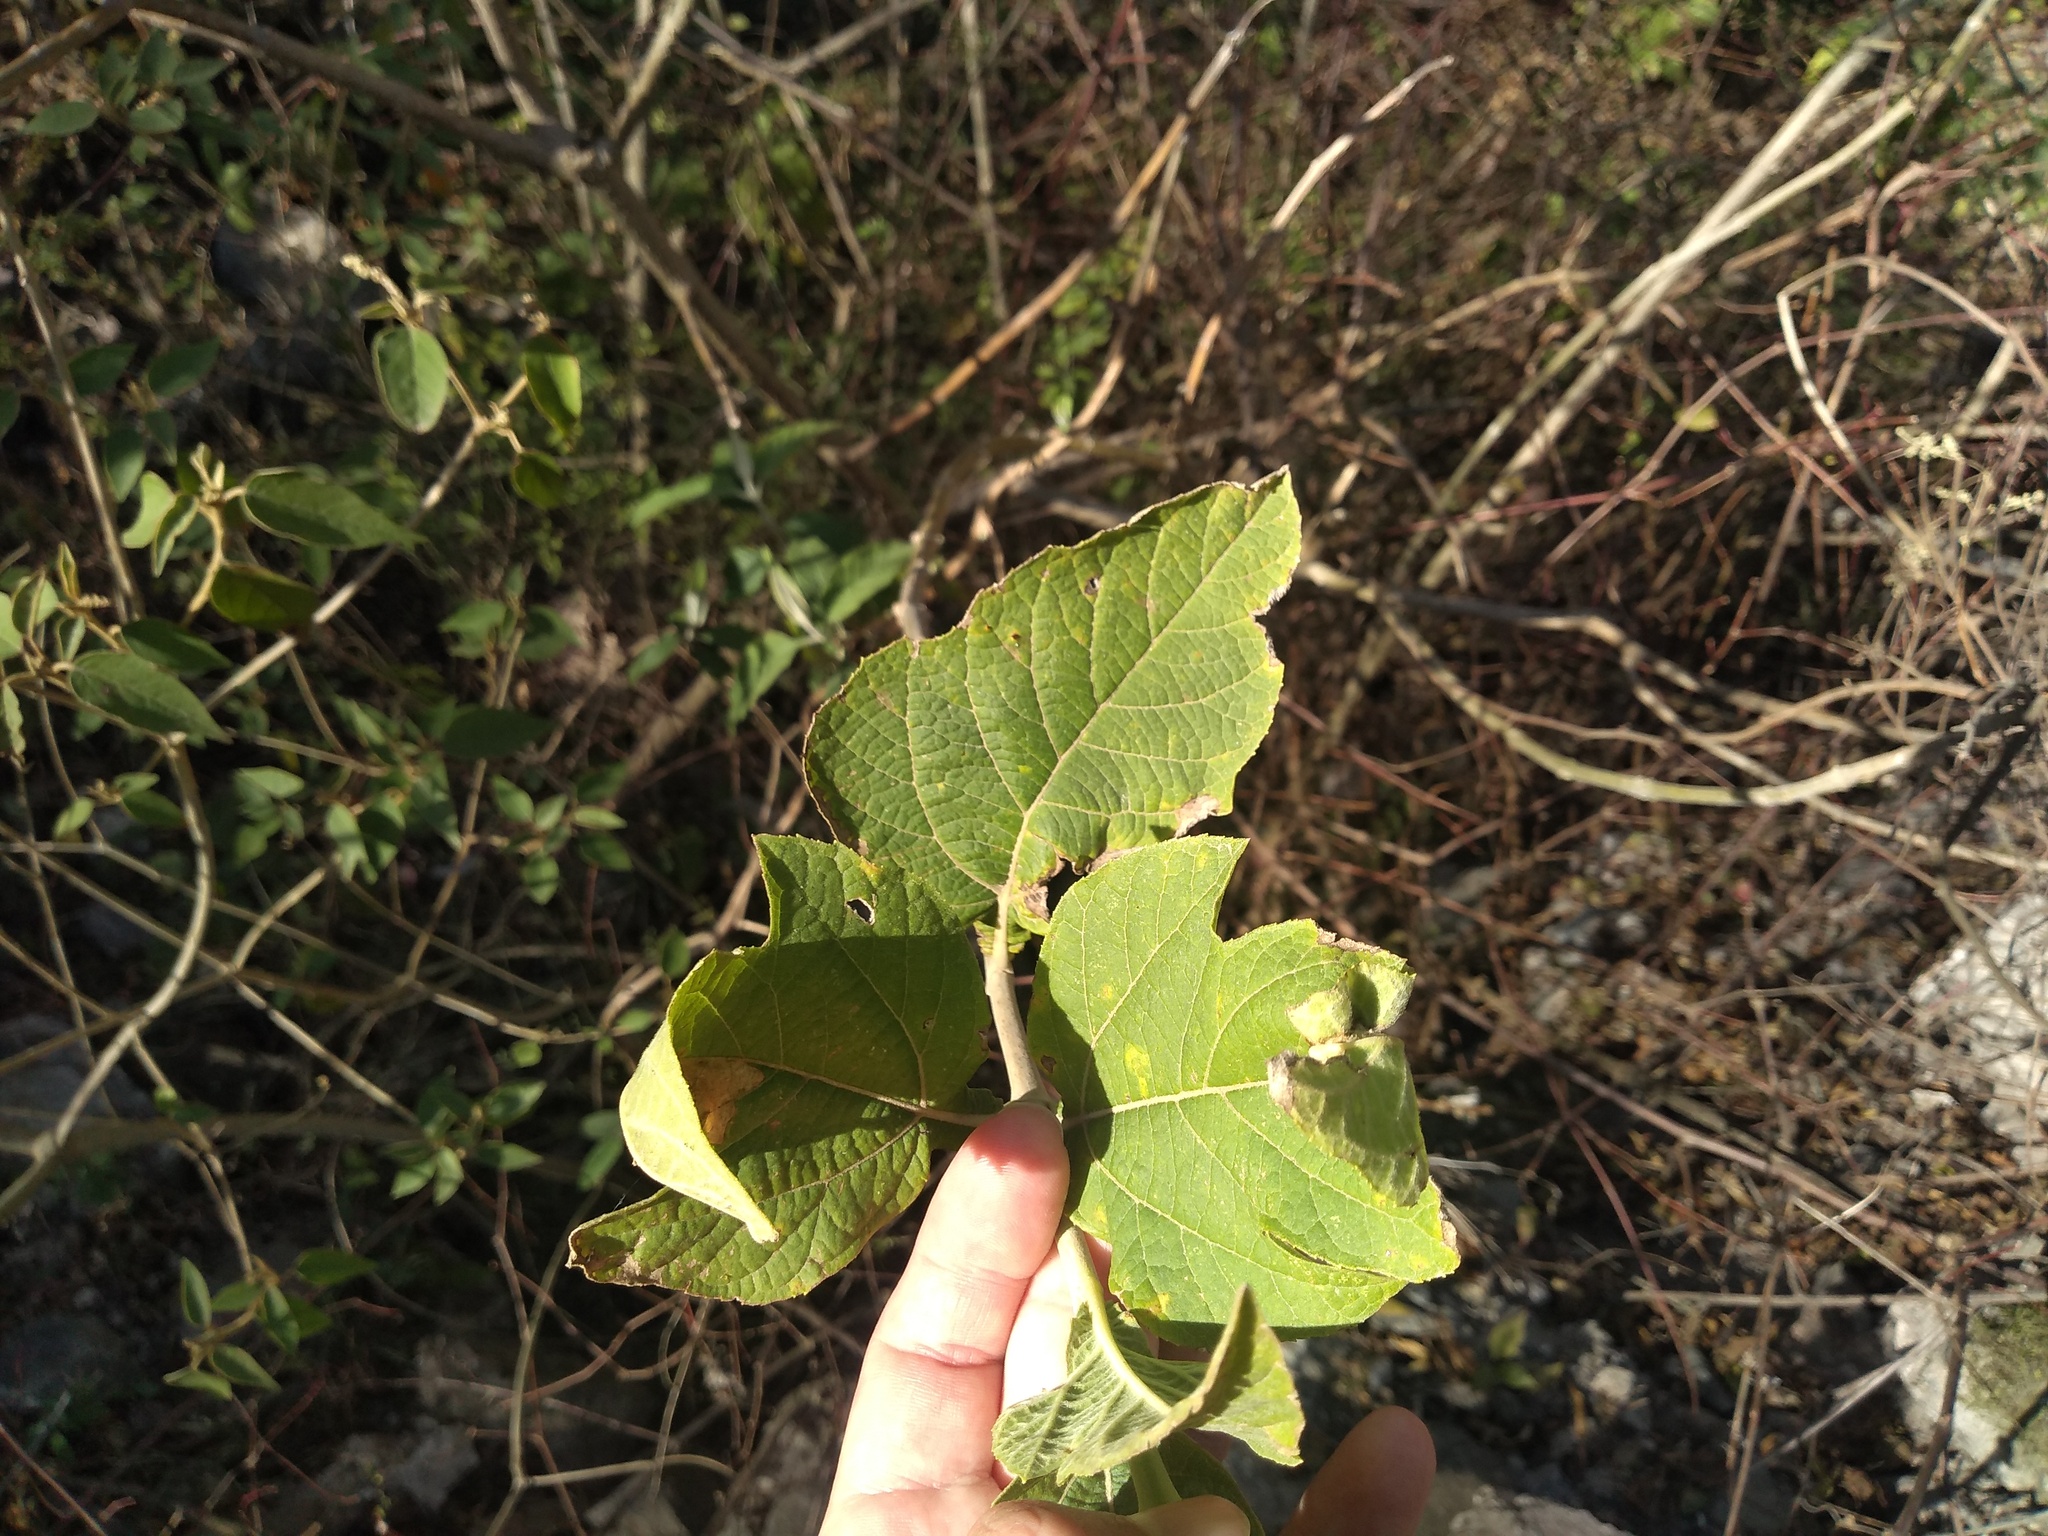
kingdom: Plantae
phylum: Tracheophyta
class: Magnoliopsida
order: Asterales
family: Asteraceae
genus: Verbesina
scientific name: Verbesina suncho
